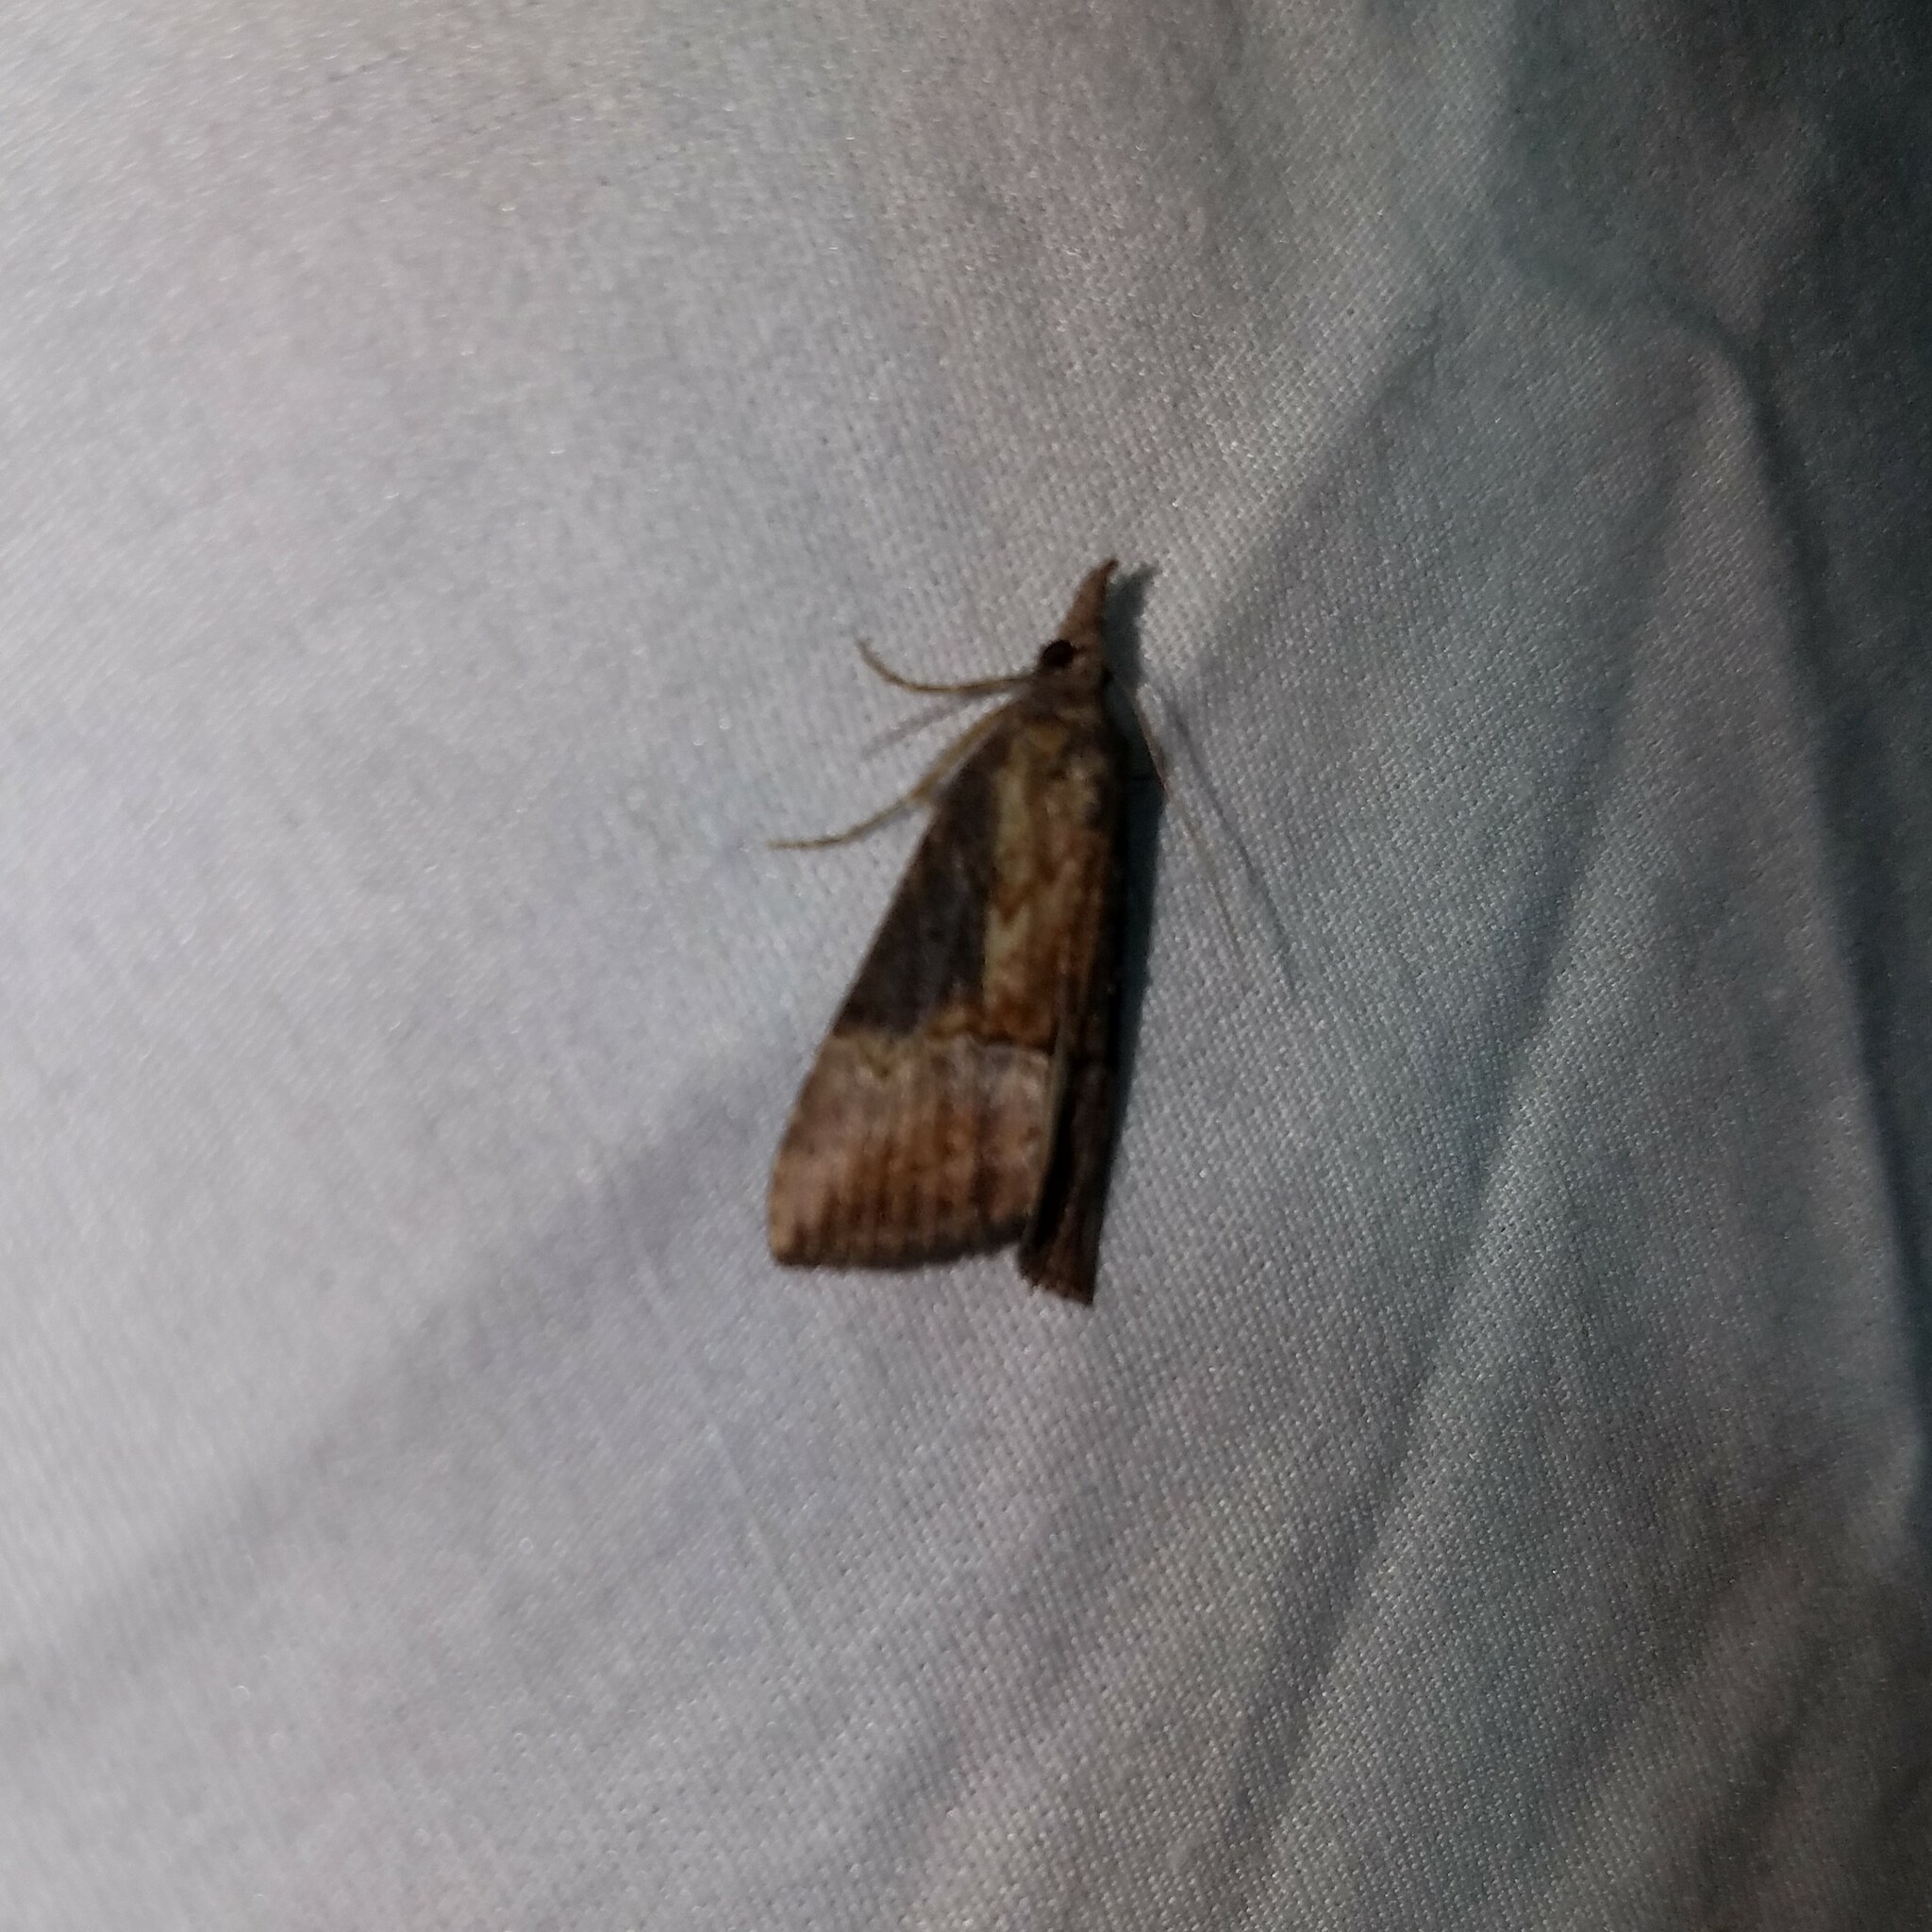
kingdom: Animalia
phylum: Arthropoda
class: Insecta
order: Lepidoptera
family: Erebidae
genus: Hypena
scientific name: Hypena scabra
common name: Green cloverworm
